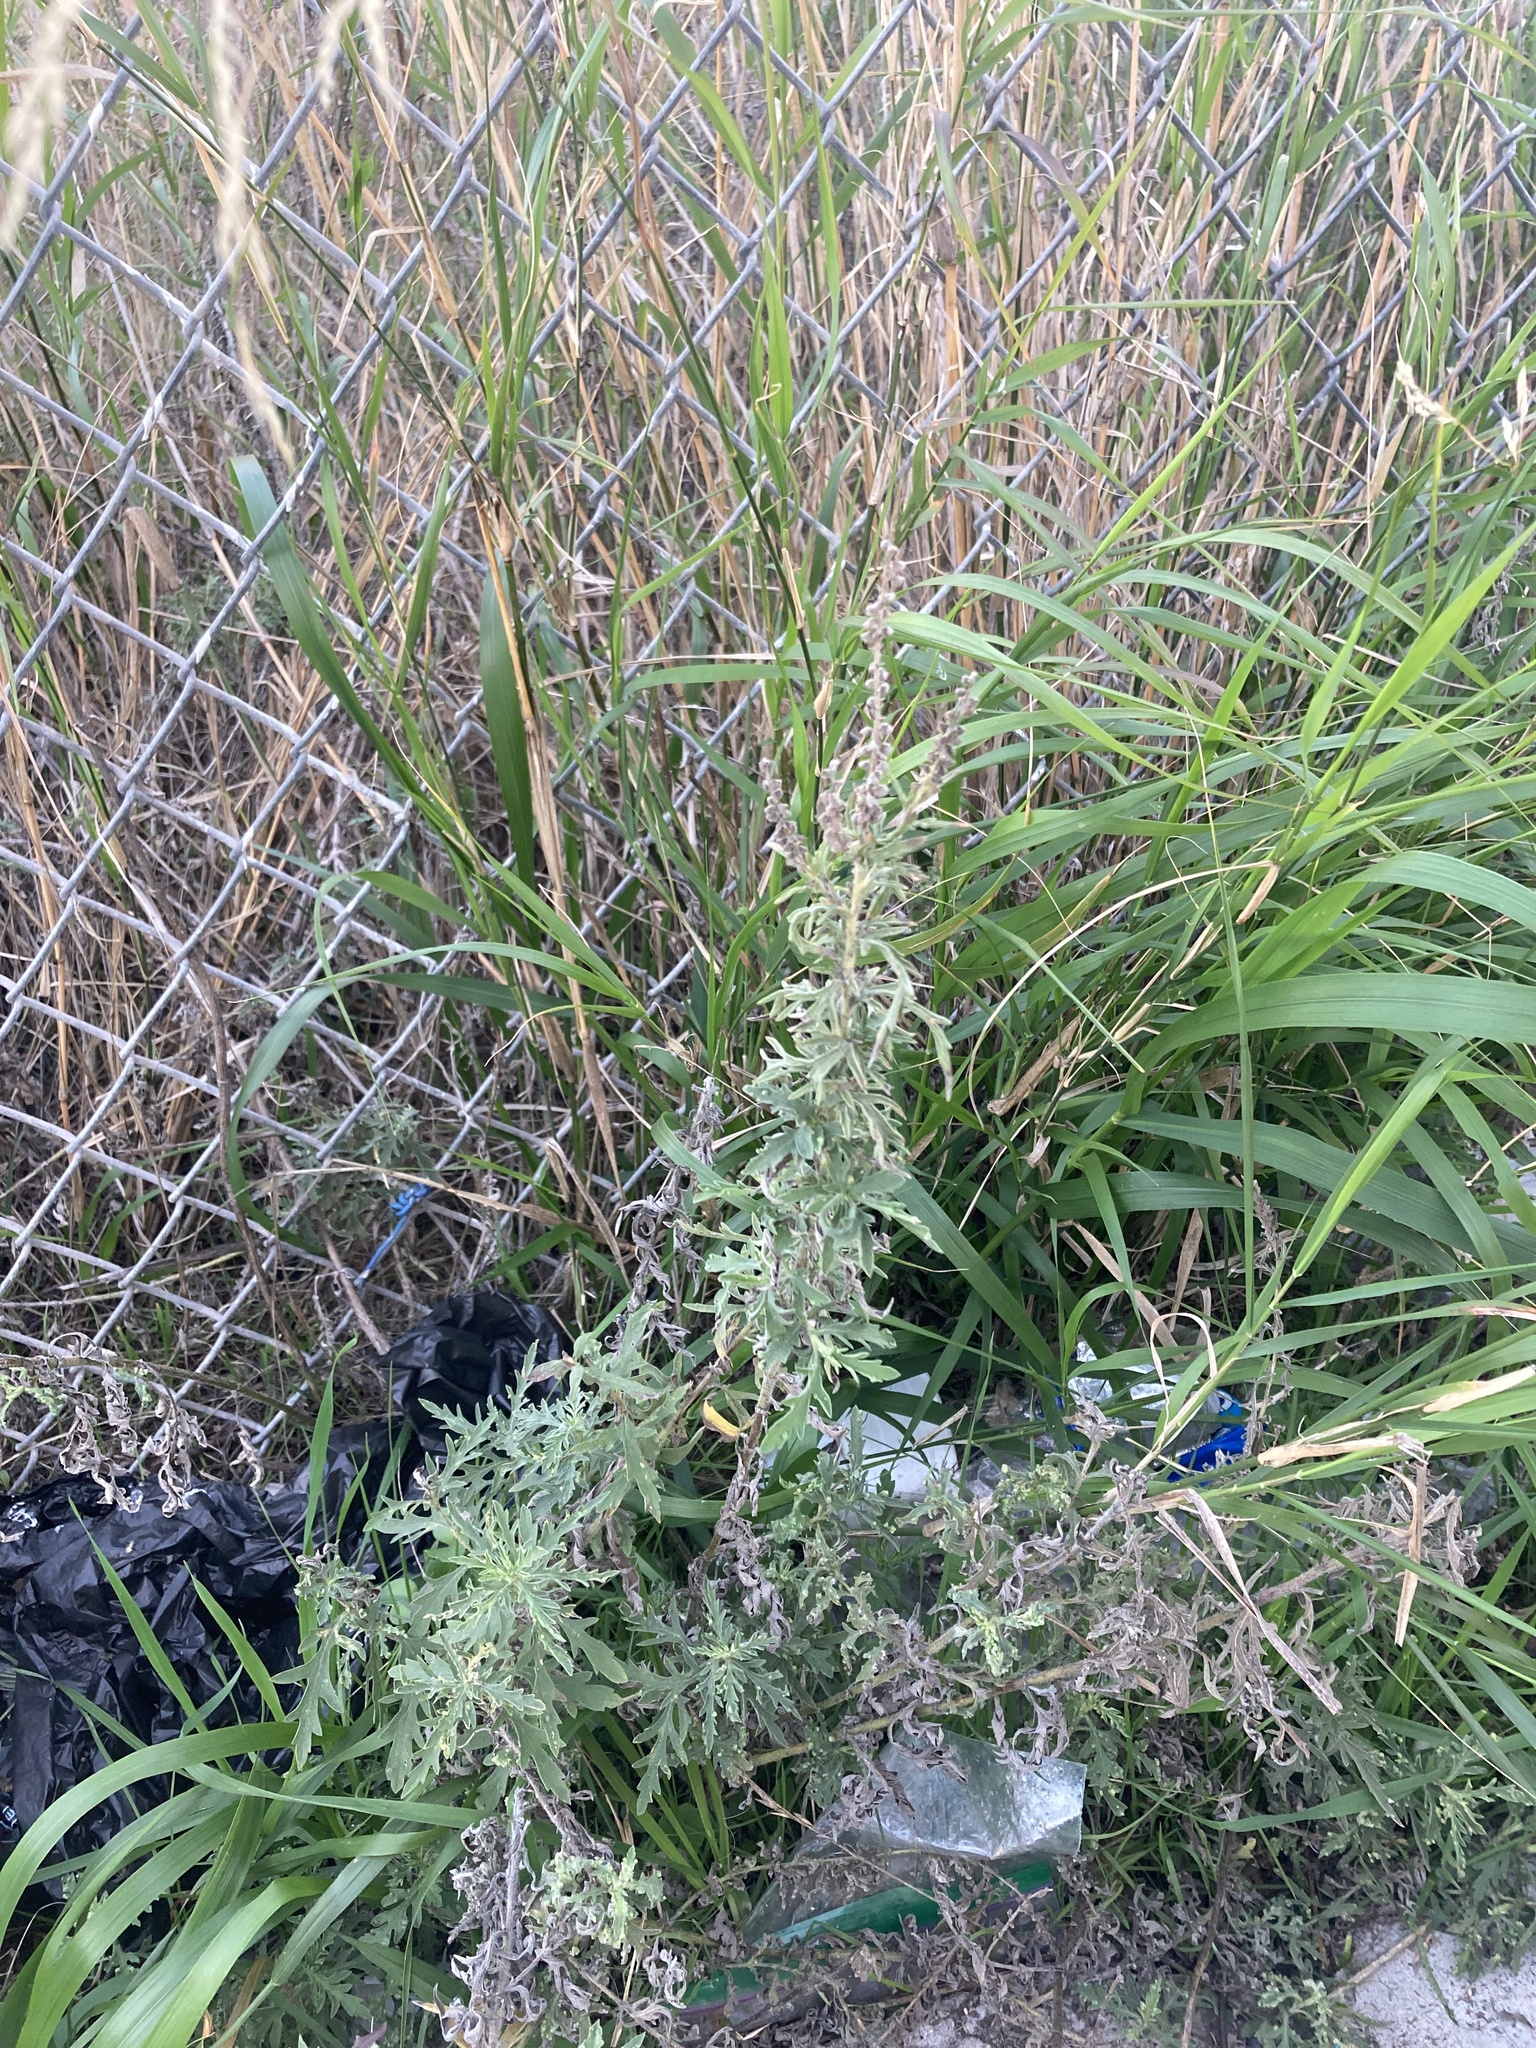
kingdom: Plantae
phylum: Tracheophyta
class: Magnoliopsida
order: Asterales
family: Asteraceae
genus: Ambrosia
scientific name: Ambrosia psilostachya
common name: Perennial ragweed
